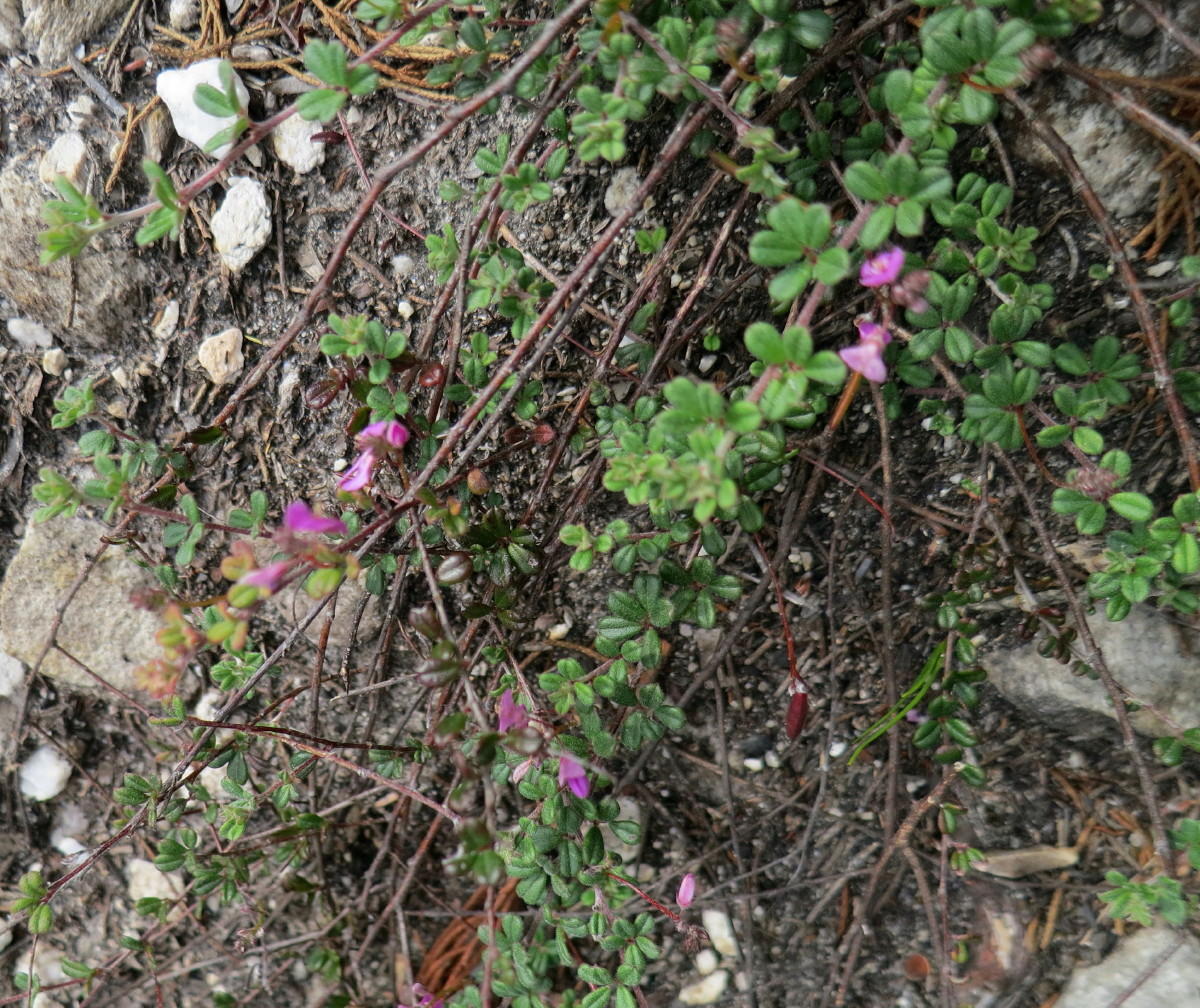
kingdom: Plantae
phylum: Tracheophyta
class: Magnoliopsida
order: Fabales
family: Fabaceae
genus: Indigofera
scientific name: Indigofera
